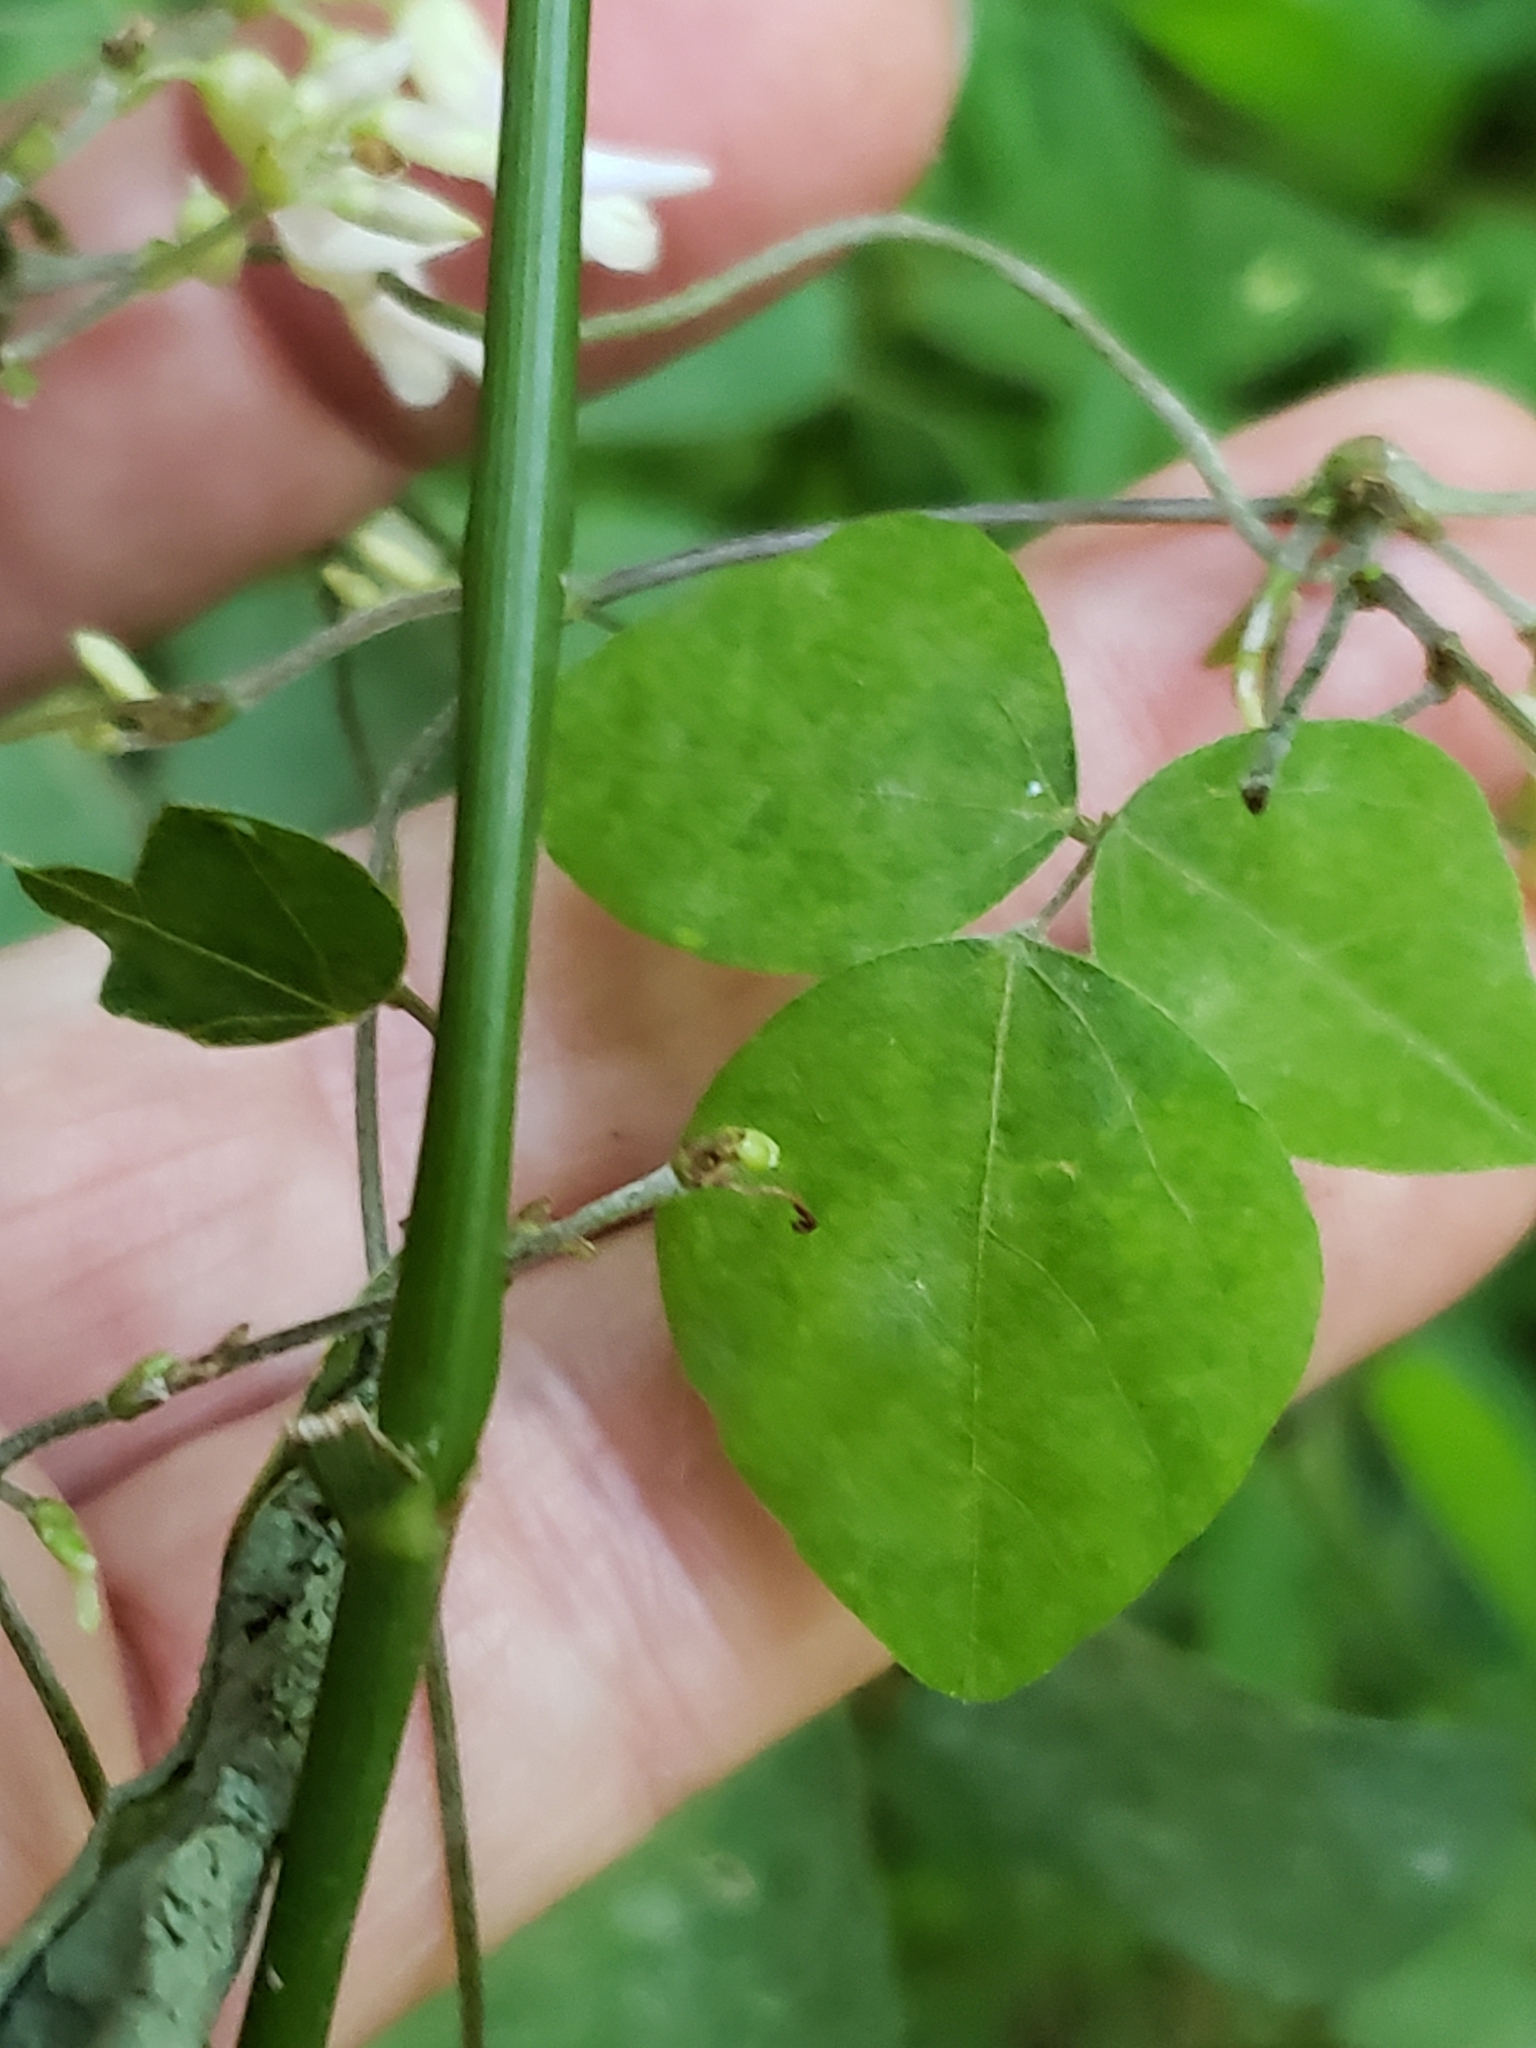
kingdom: Plantae
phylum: Tracheophyta
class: Magnoliopsida
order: Fabales
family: Fabaceae
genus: Amphicarpaea
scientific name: Amphicarpaea bracteata
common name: American hog peanut
